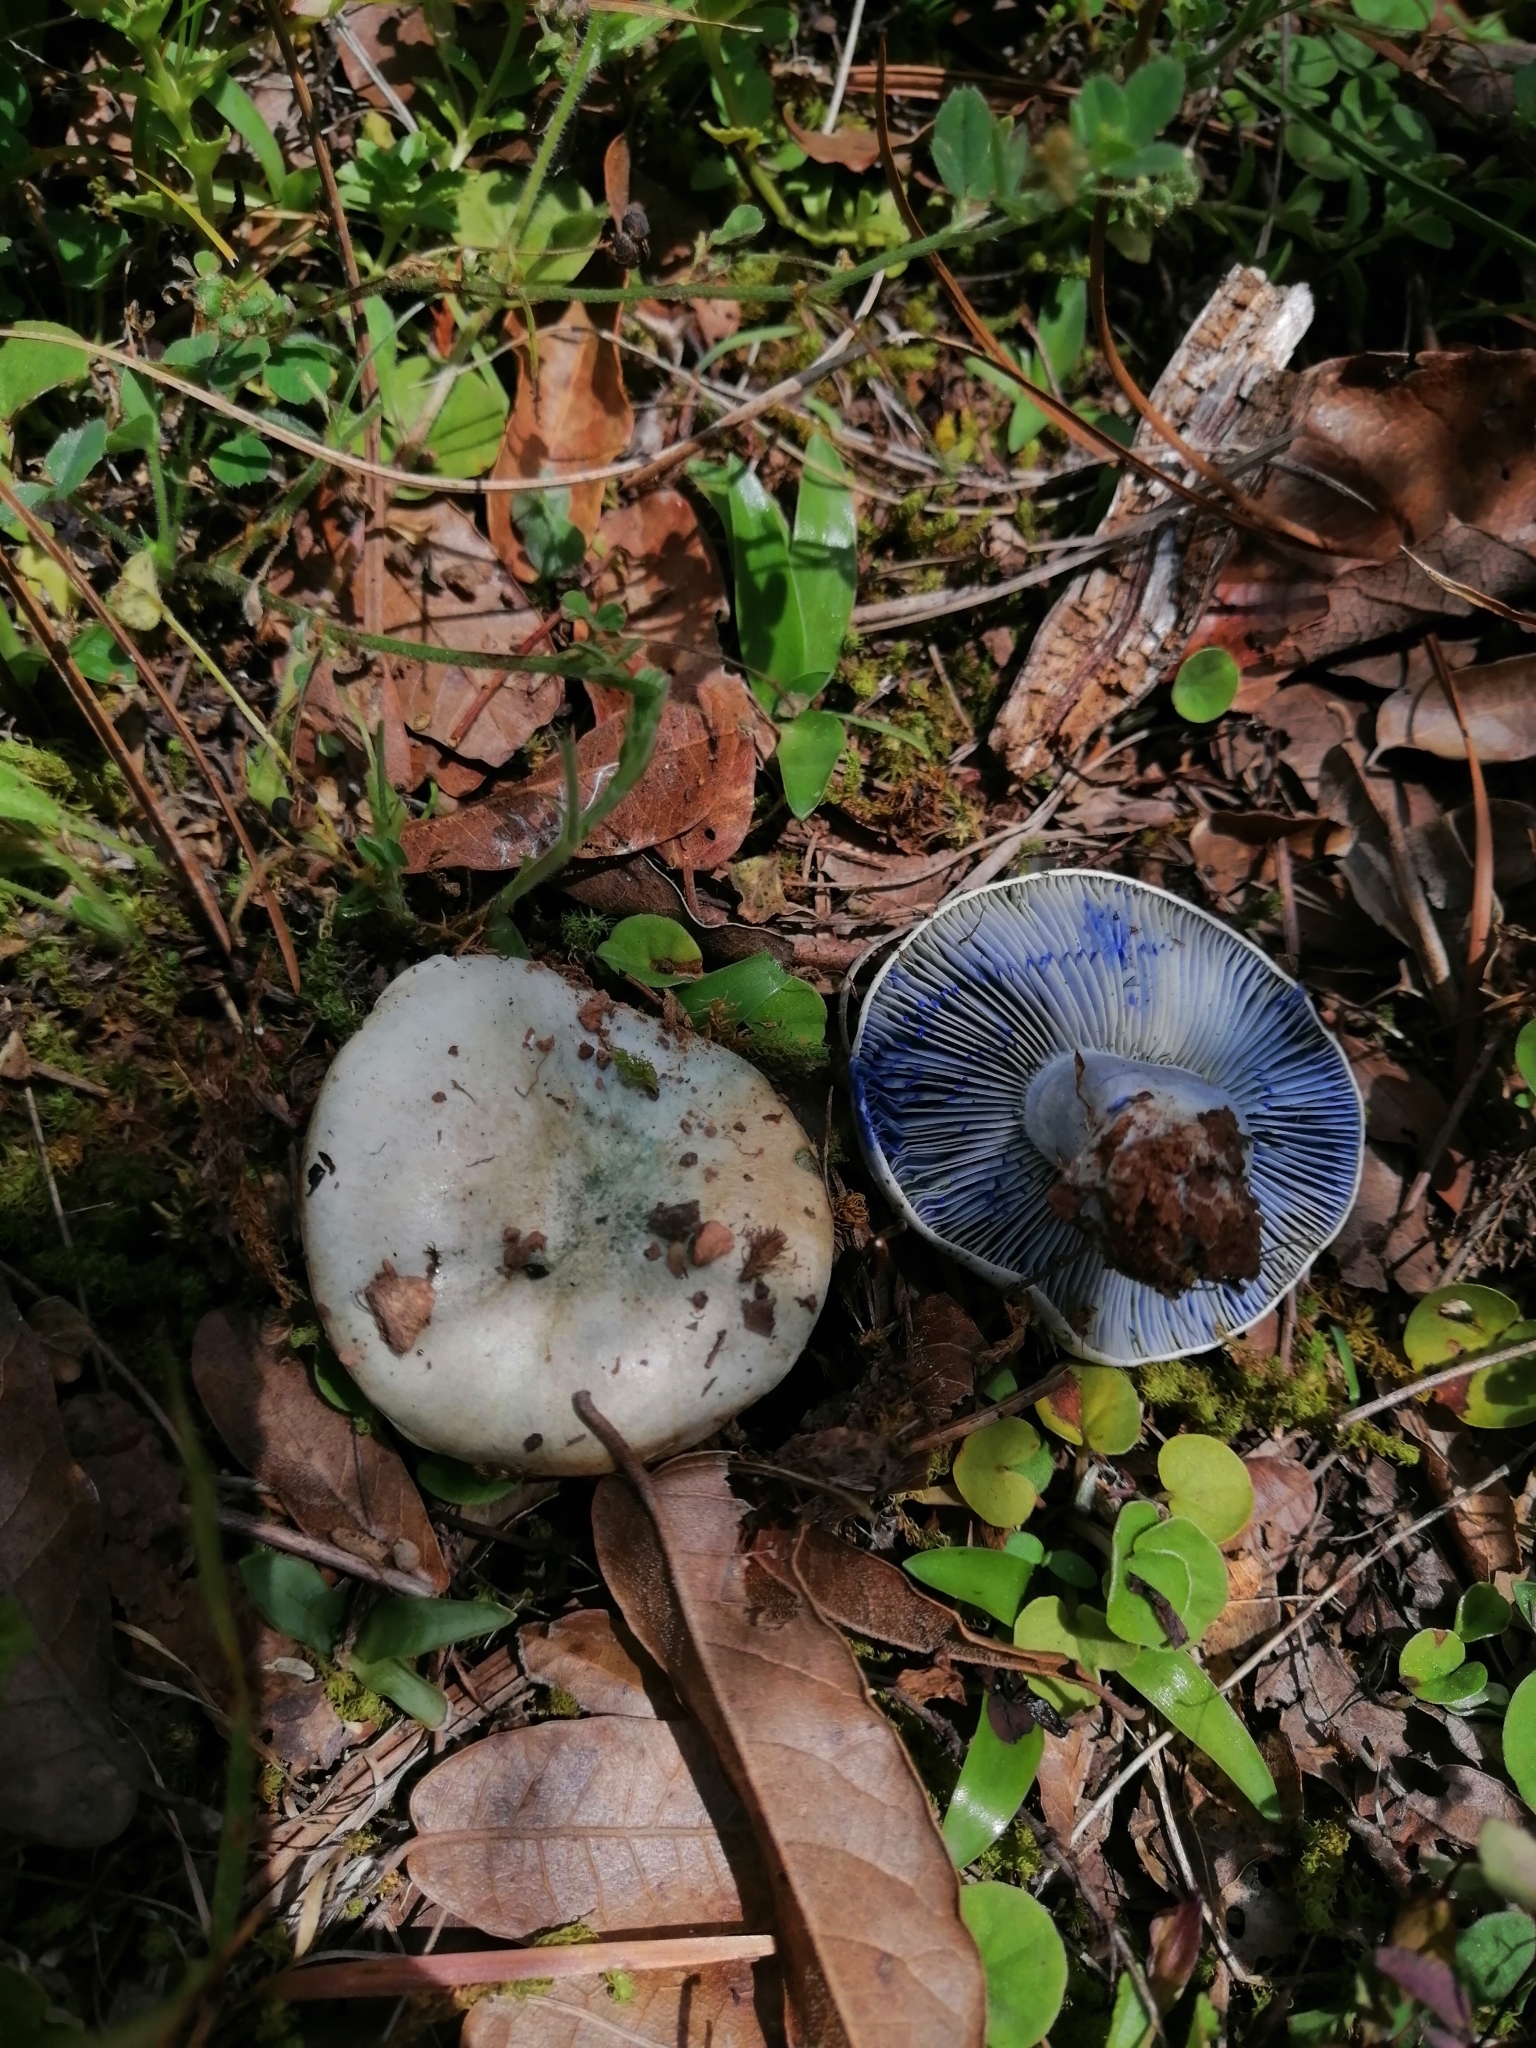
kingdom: Fungi
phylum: Basidiomycota
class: Agaricomycetes
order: Russulales
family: Russulaceae
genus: Lactarius
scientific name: Lactarius indigo
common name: Indigo milk cap
